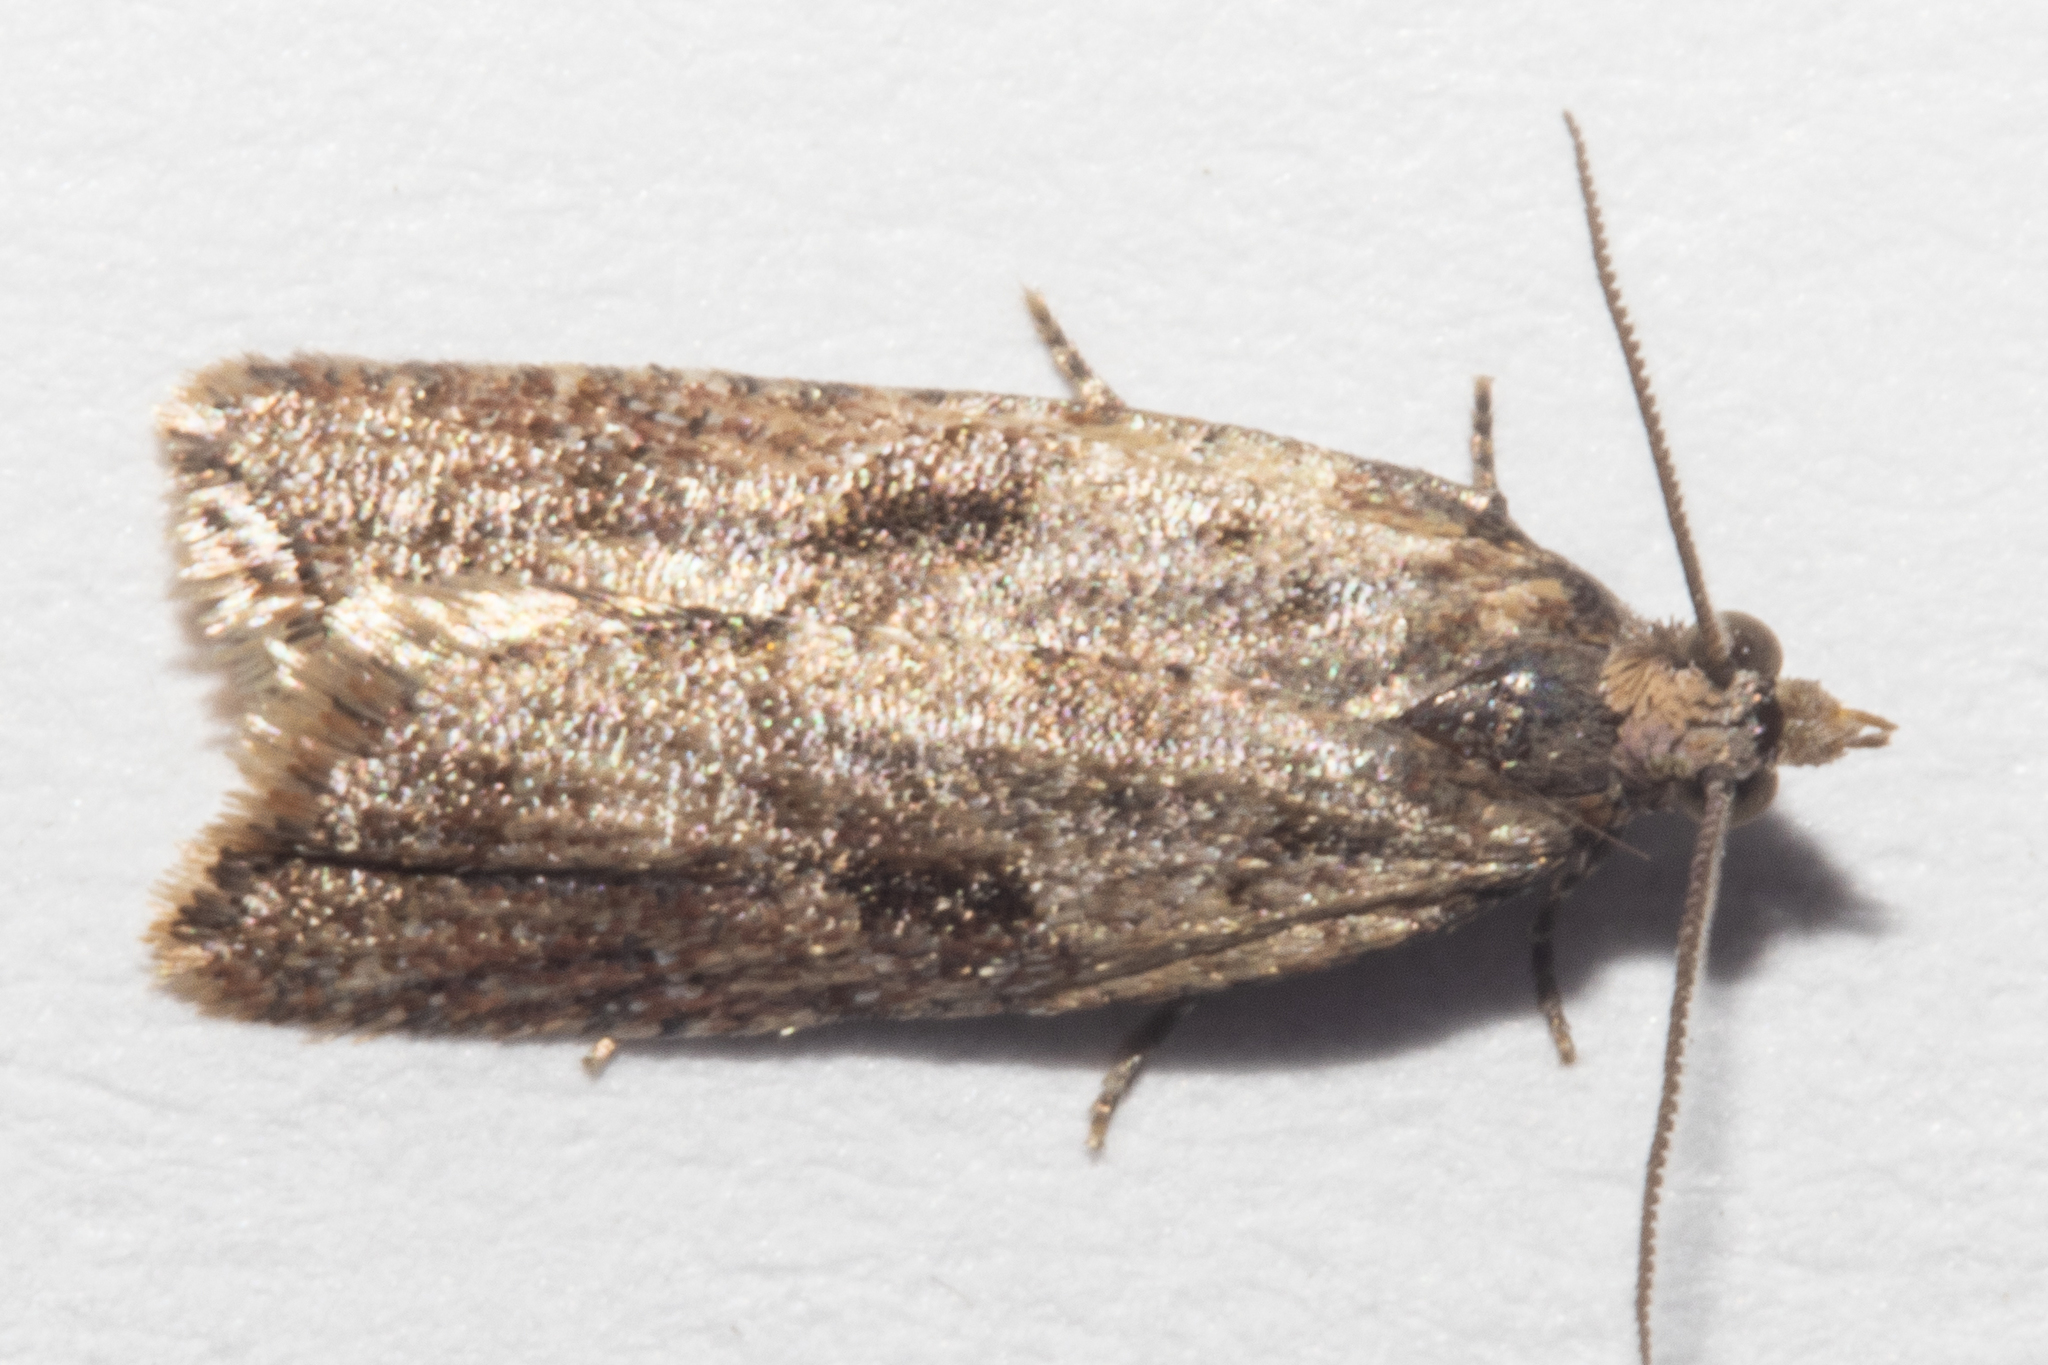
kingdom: Animalia
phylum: Arthropoda
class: Insecta
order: Lepidoptera
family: Tortricidae
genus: Capua
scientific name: Capua semiferana
